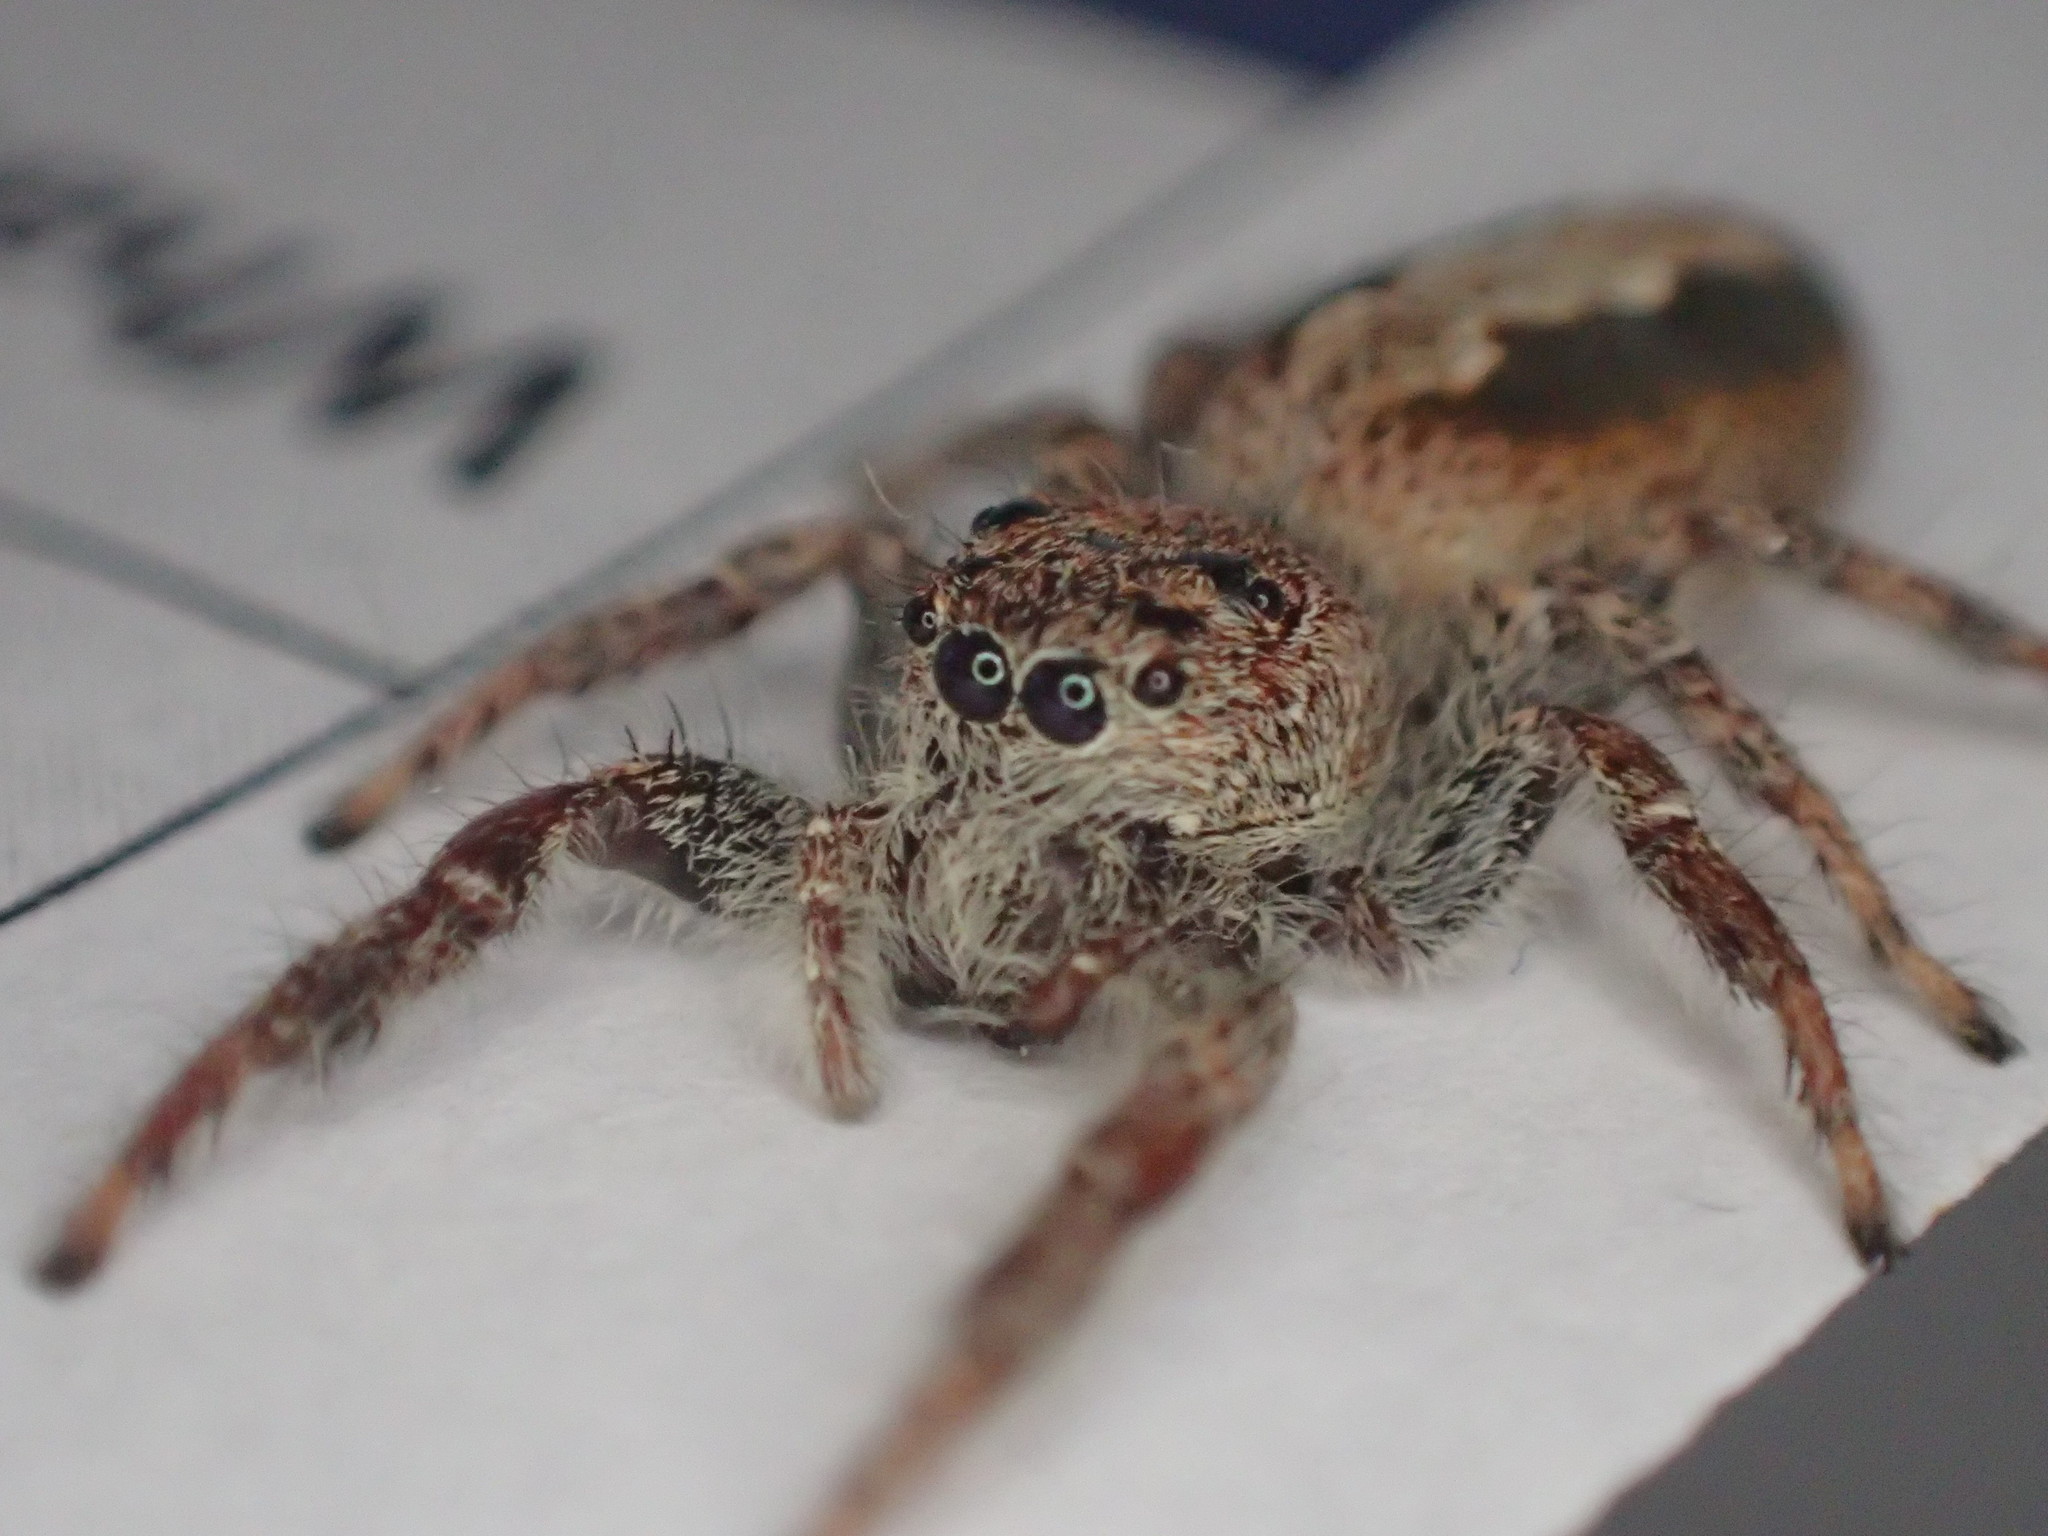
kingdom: Animalia
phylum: Arthropoda
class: Arachnida
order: Araneae
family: Salticidae
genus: Sandalodes
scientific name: Sandalodes superbus
